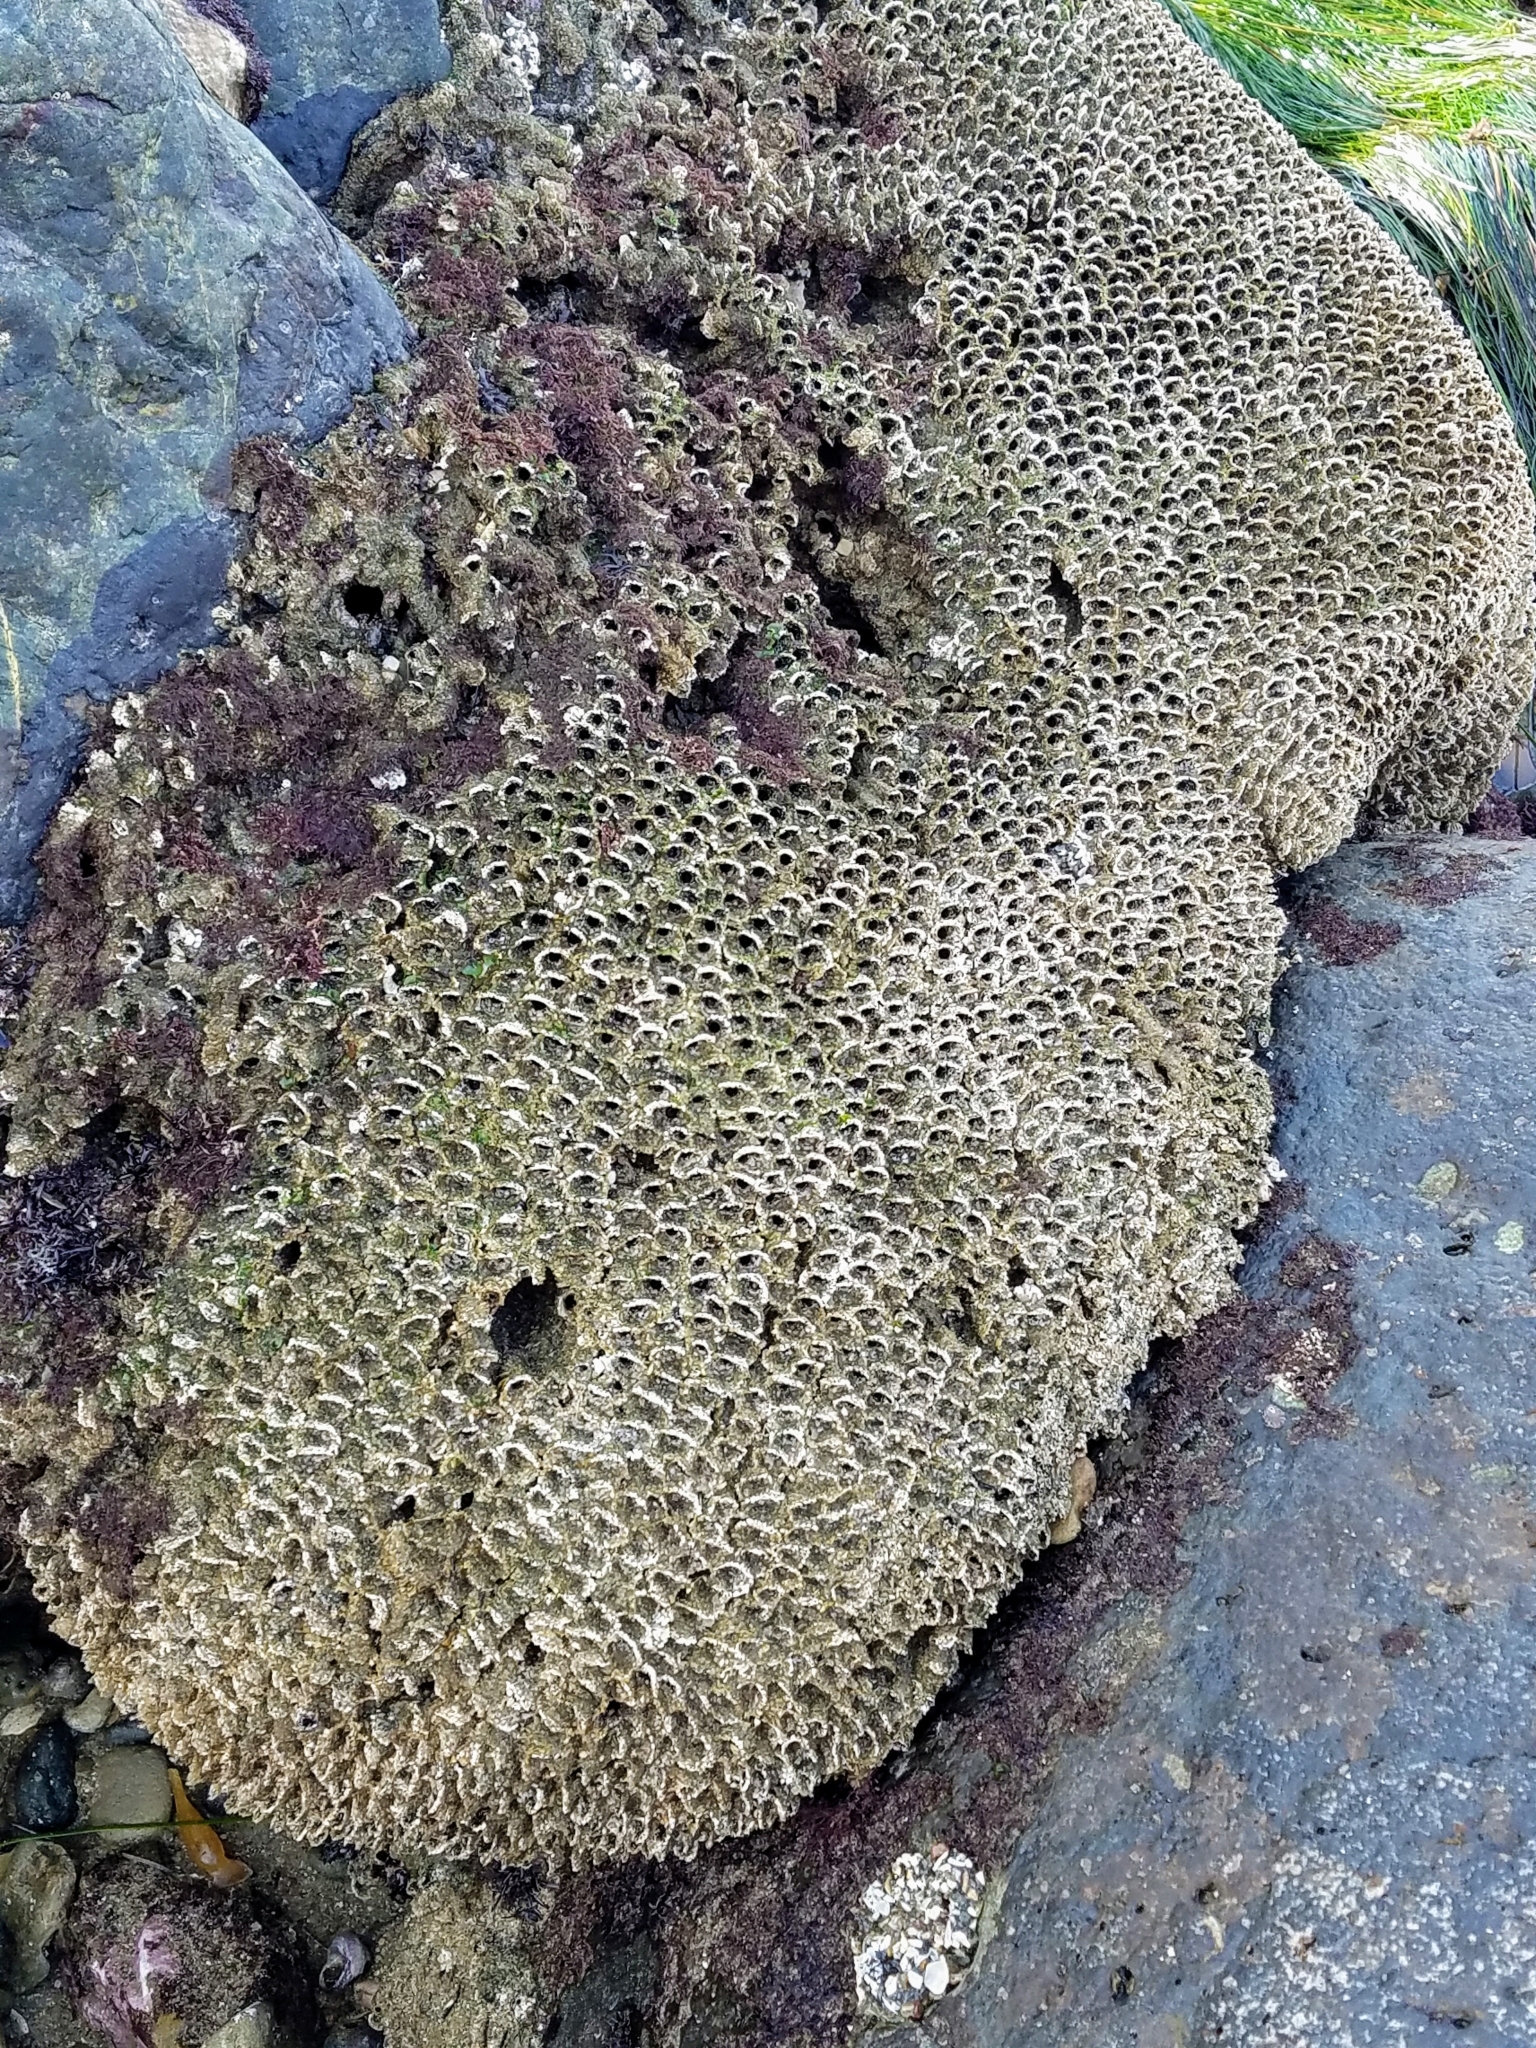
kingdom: Animalia
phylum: Annelida
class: Polychaeta
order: Sabellida
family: Sabellariidae
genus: Phragmatopoma
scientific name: Phragmatopoma californica
